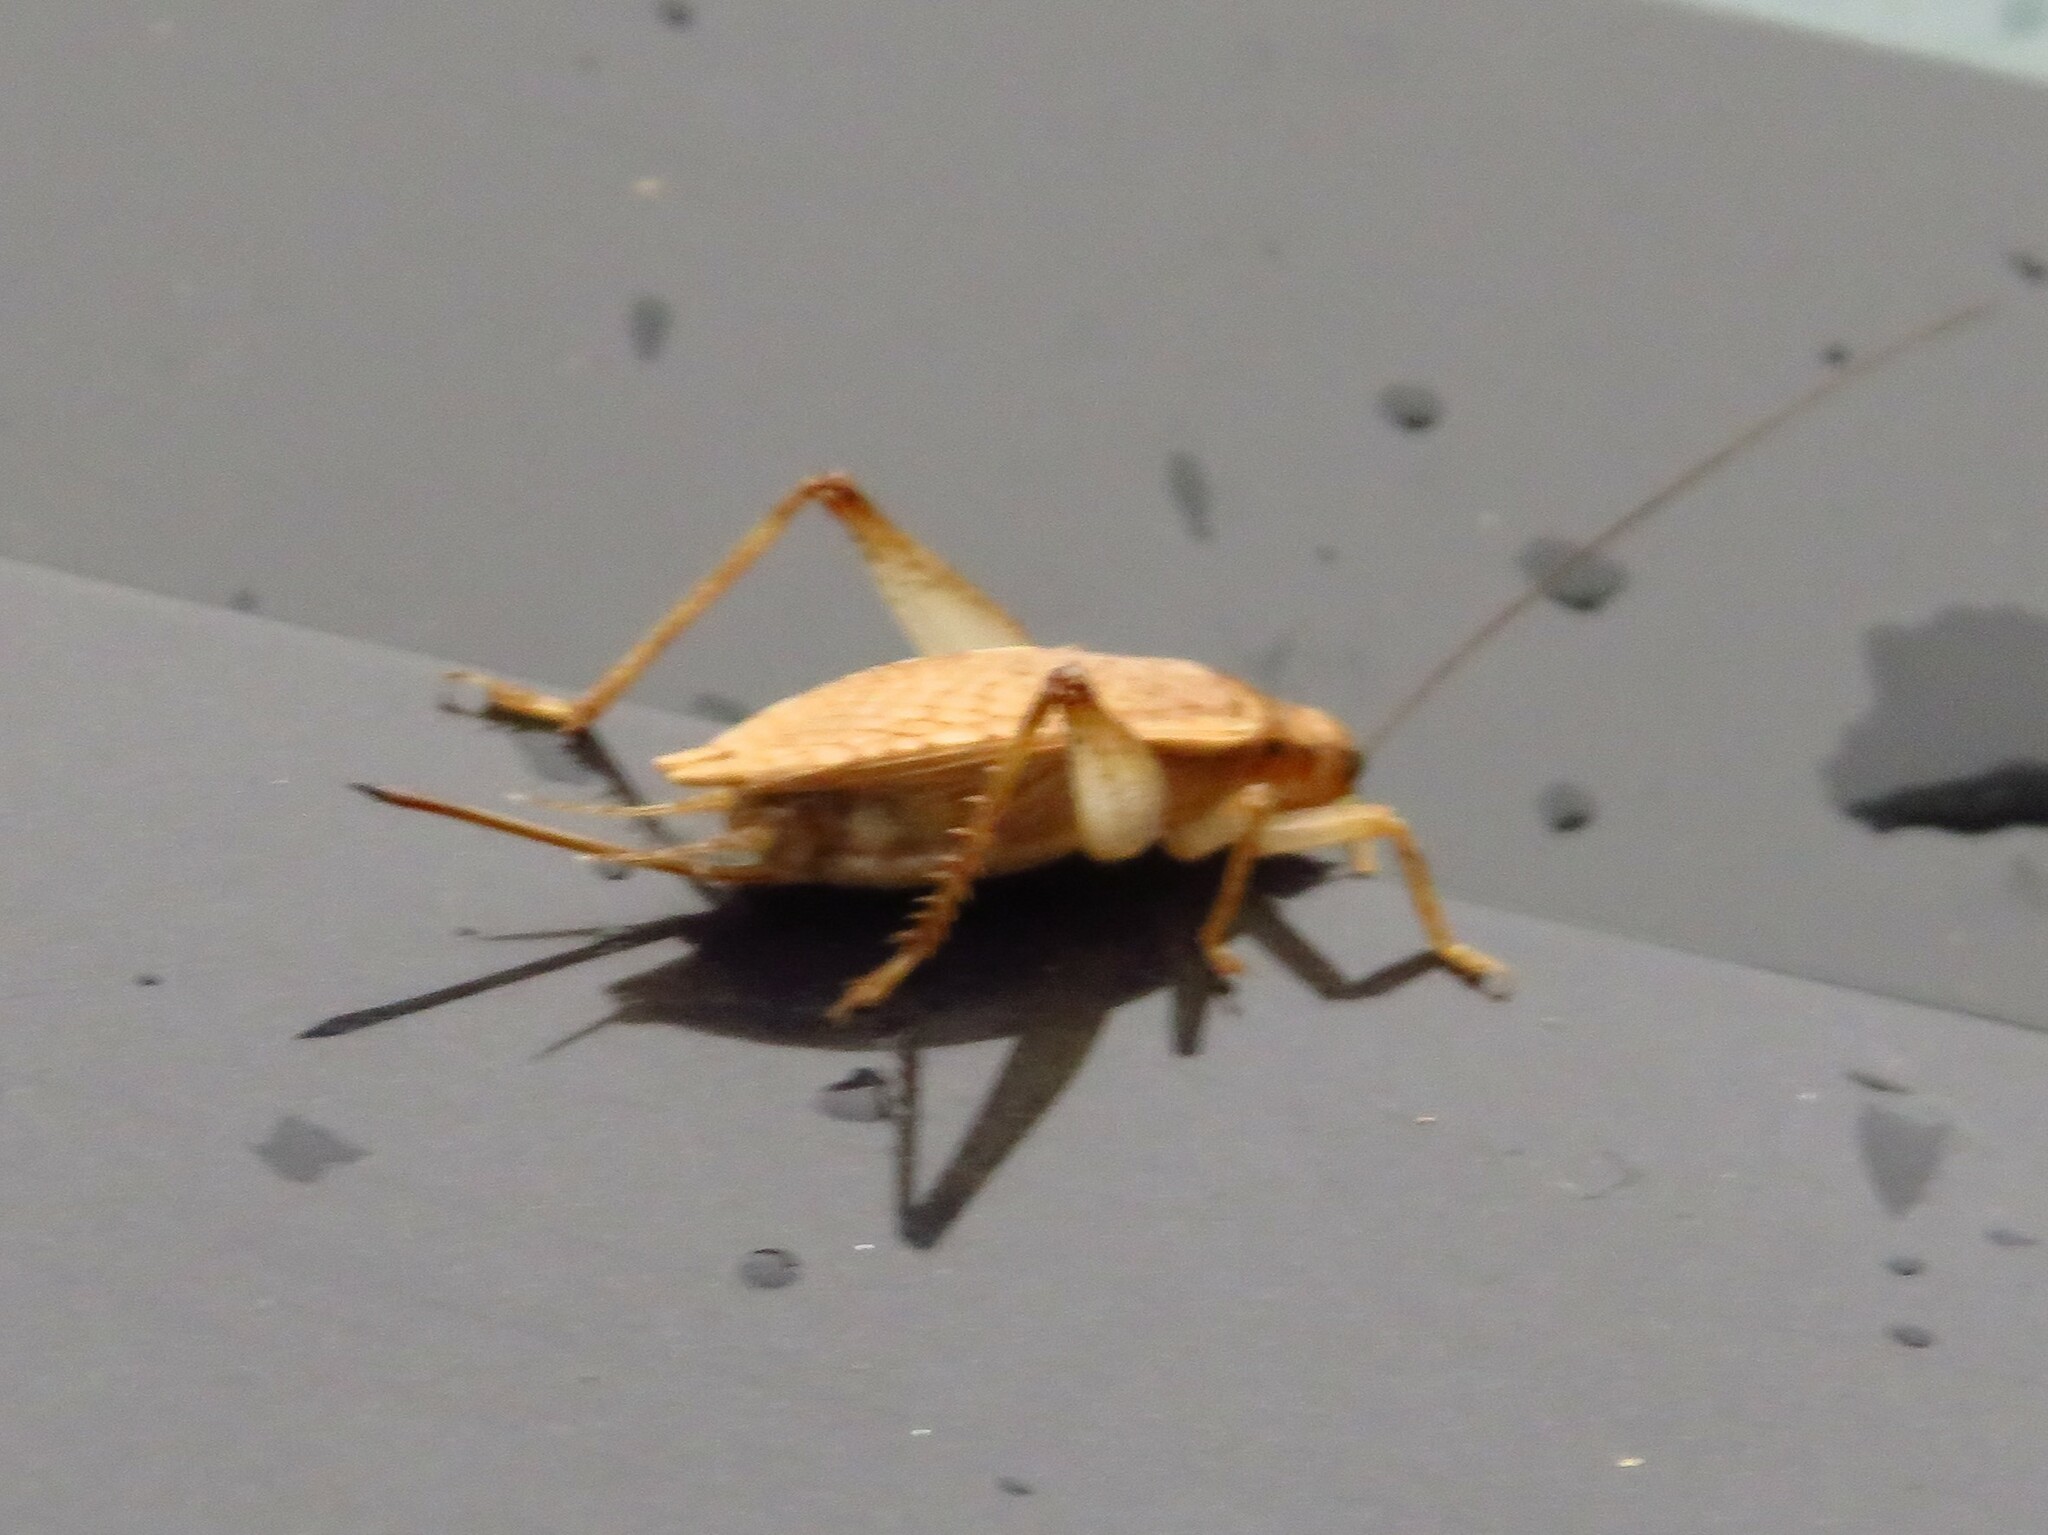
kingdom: Animalia
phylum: Arthropoda
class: Insecta
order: Orthoptera
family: Gryllidae
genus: Hapithus
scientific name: Hapithus saltator
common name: Jumping bush cricket
